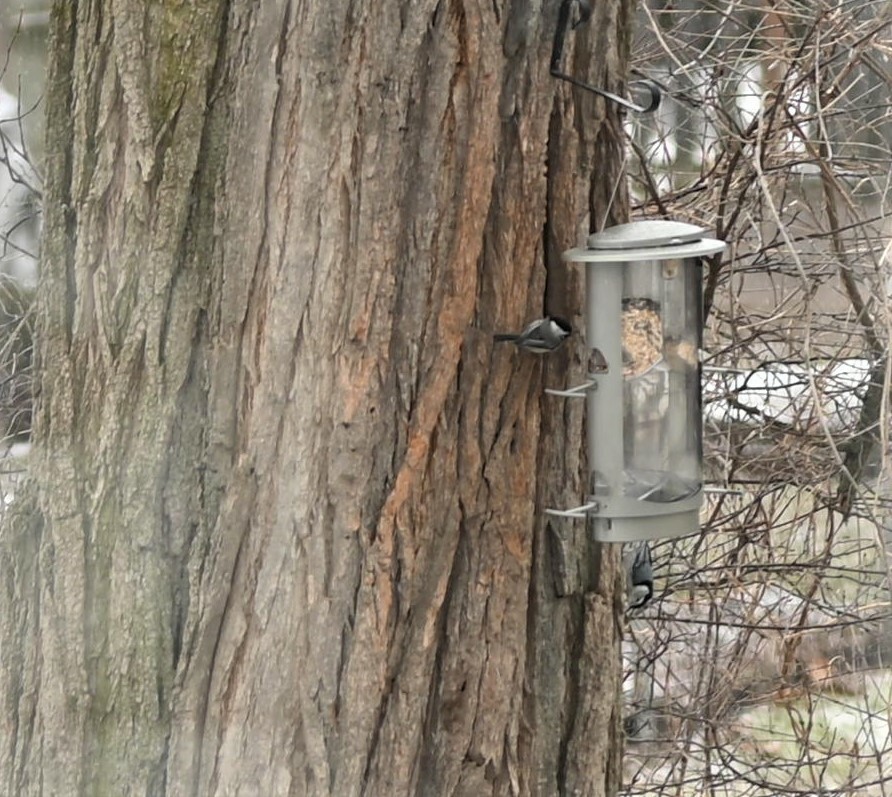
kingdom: Animalia
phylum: Chordata
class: Aves
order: Passeriformes
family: Paridae
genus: Poecile
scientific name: Poecile atricapillus
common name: Black-capped chickadee
